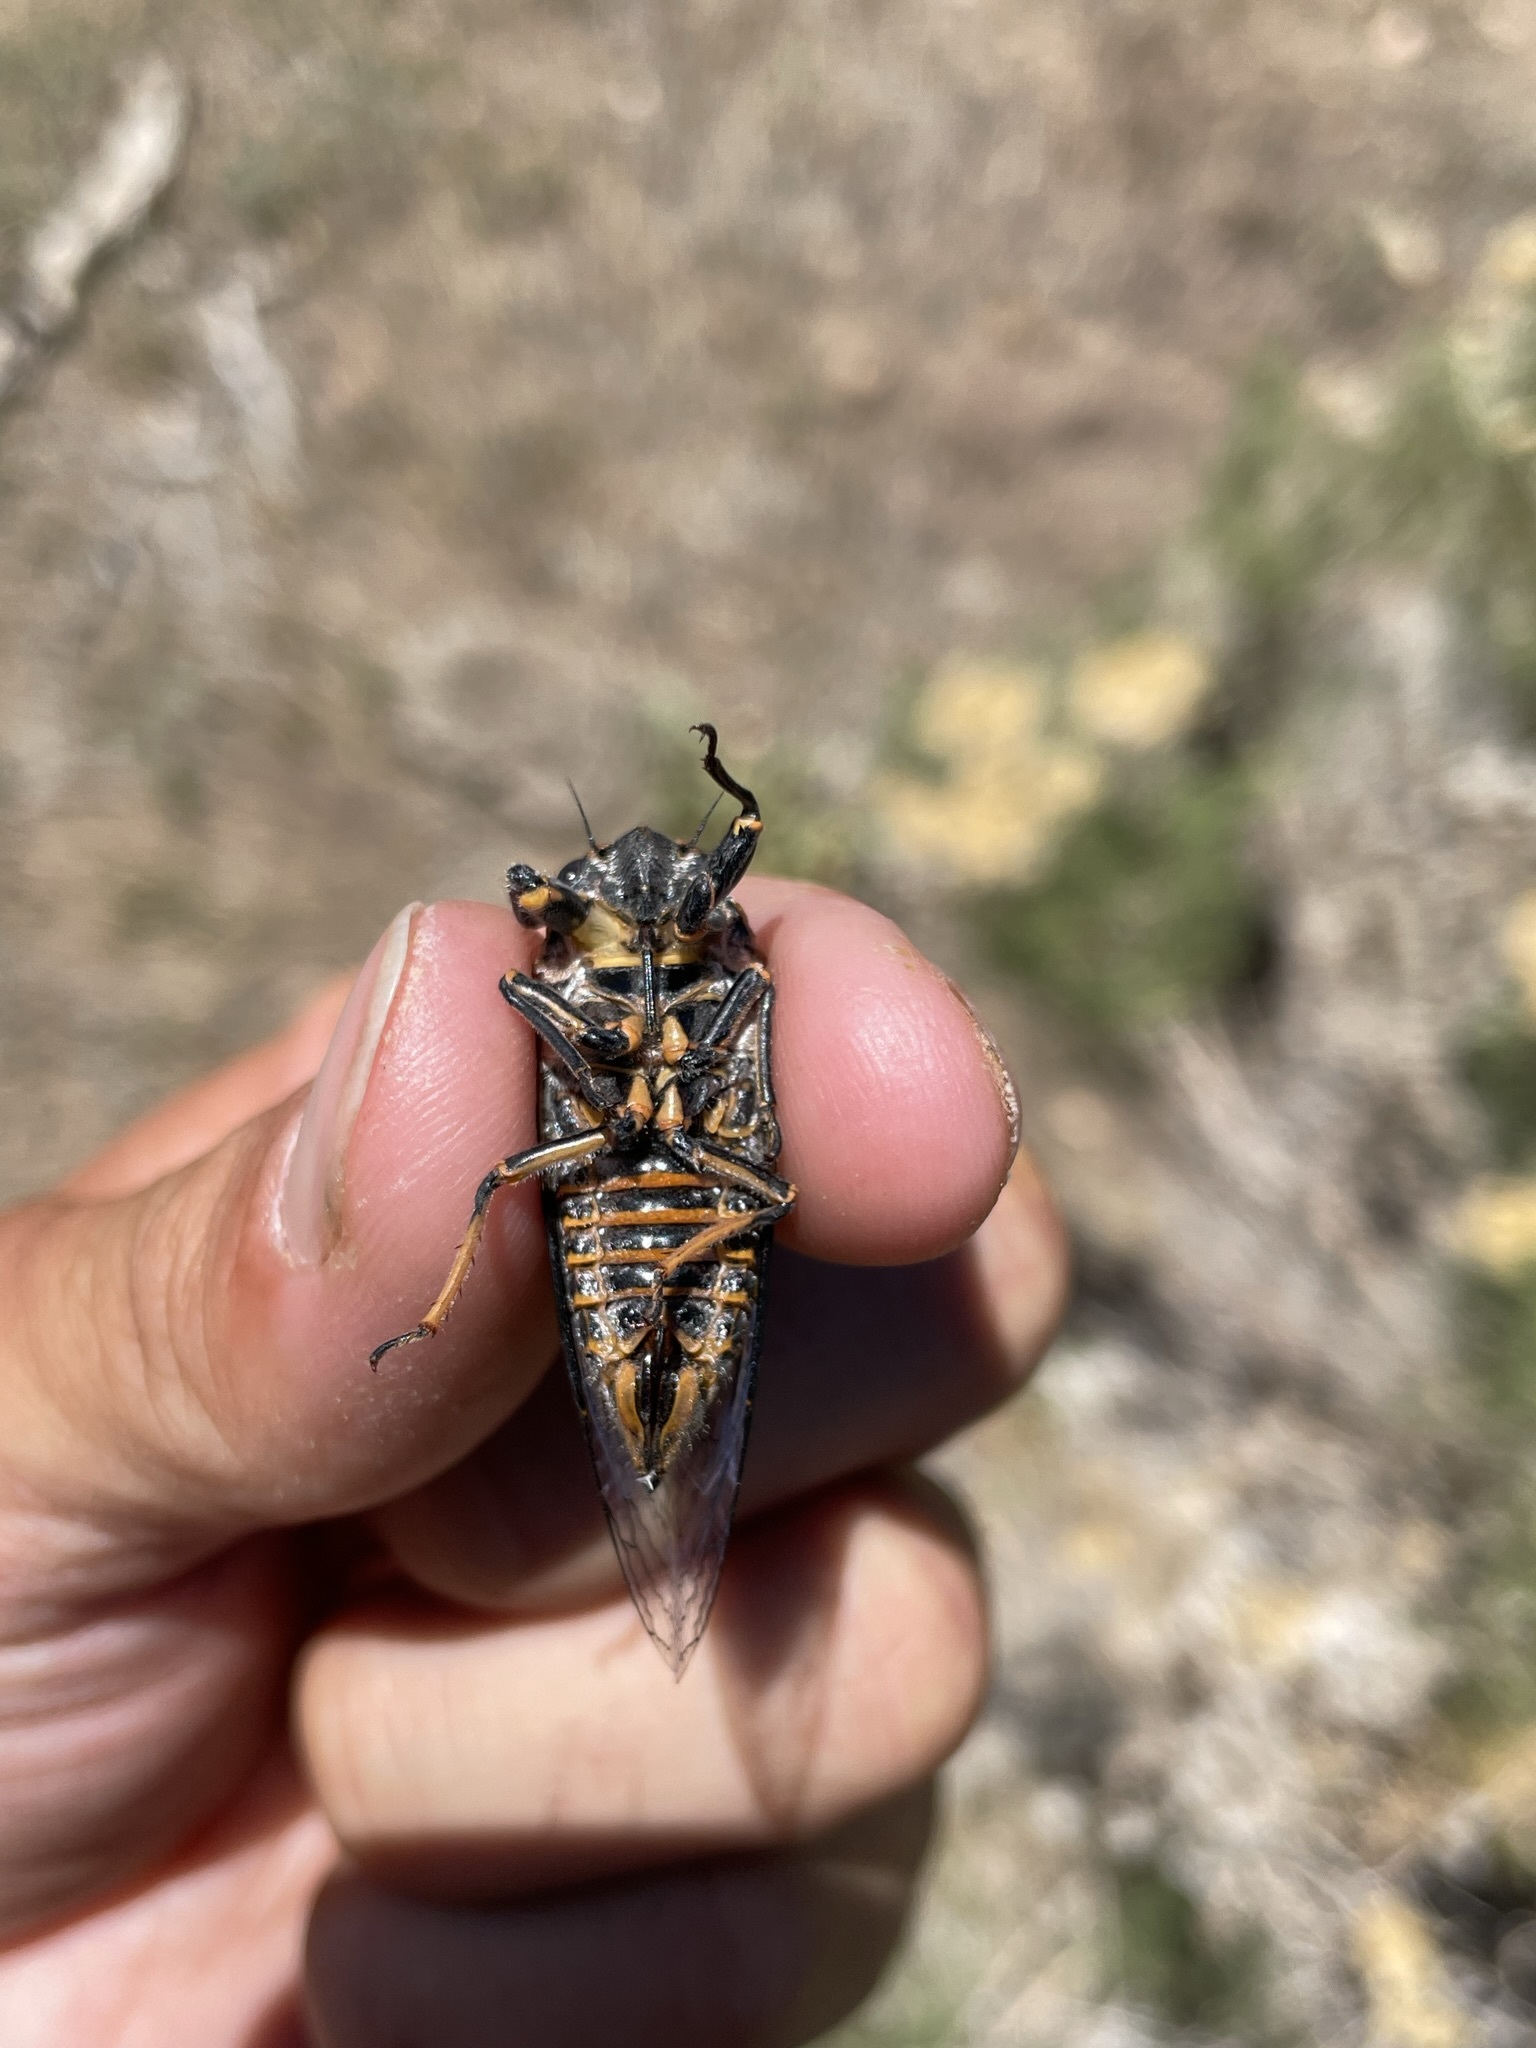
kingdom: Animalia
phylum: Arthropoda
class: Insecta
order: Hemiptera
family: Cicadidae
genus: Okanagana
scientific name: Okanagana bella
